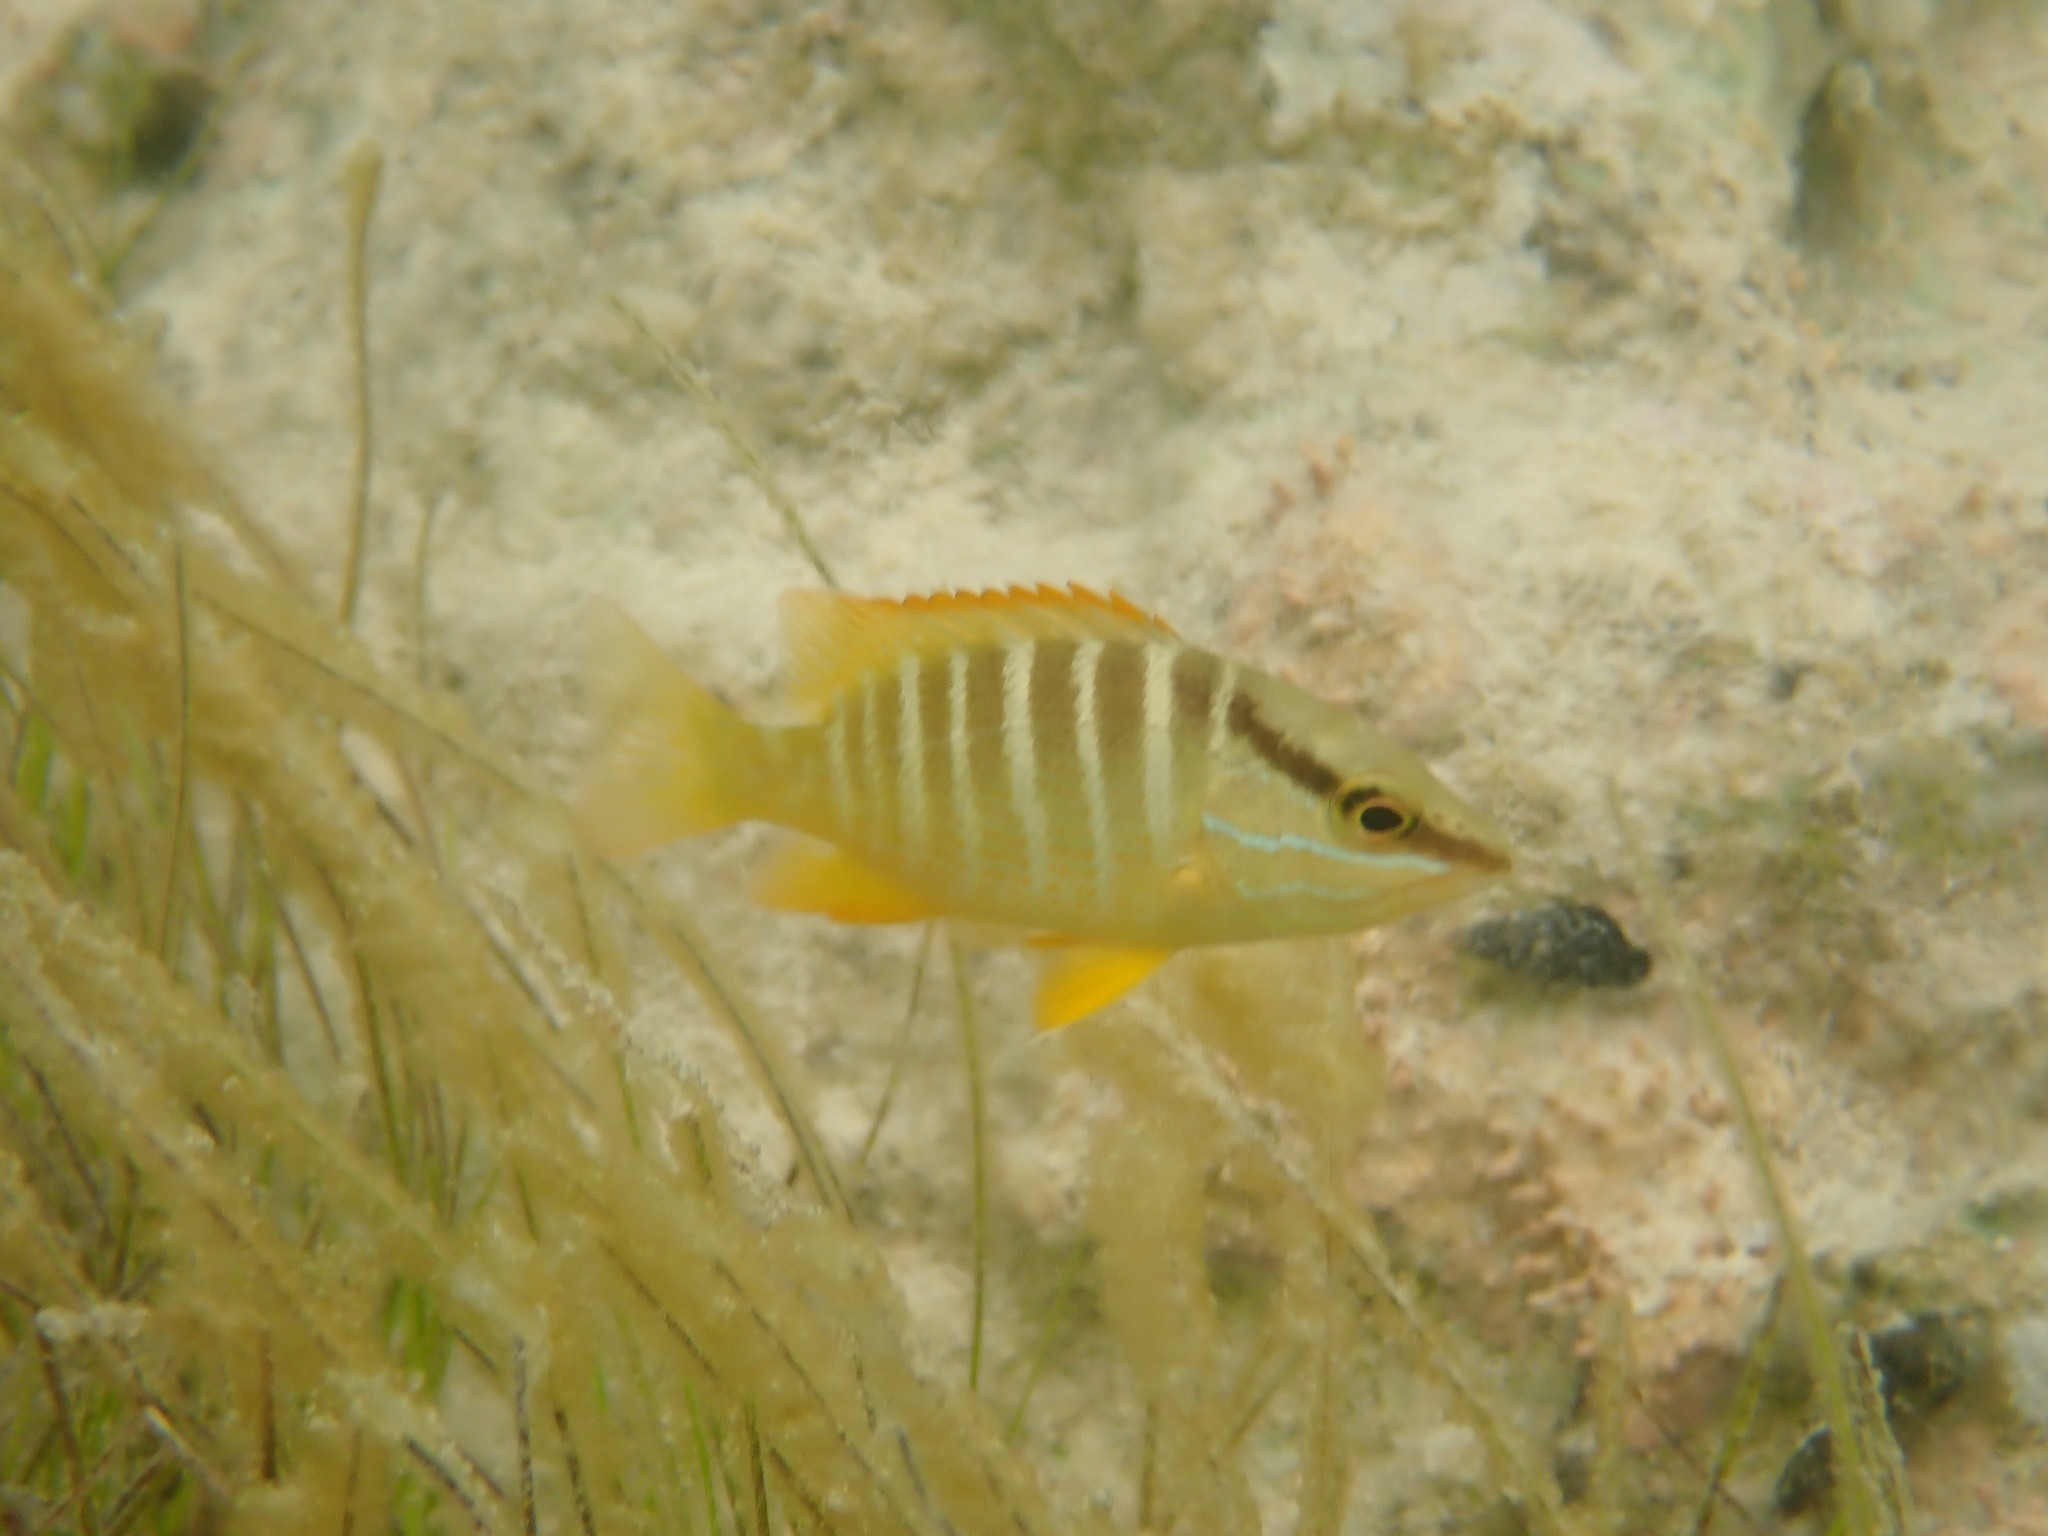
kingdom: Animalia
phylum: Chordata
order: Perciformes
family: Lutjanidae
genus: Lutjanus
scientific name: Lutjanus apodus
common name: Schoolmaster
